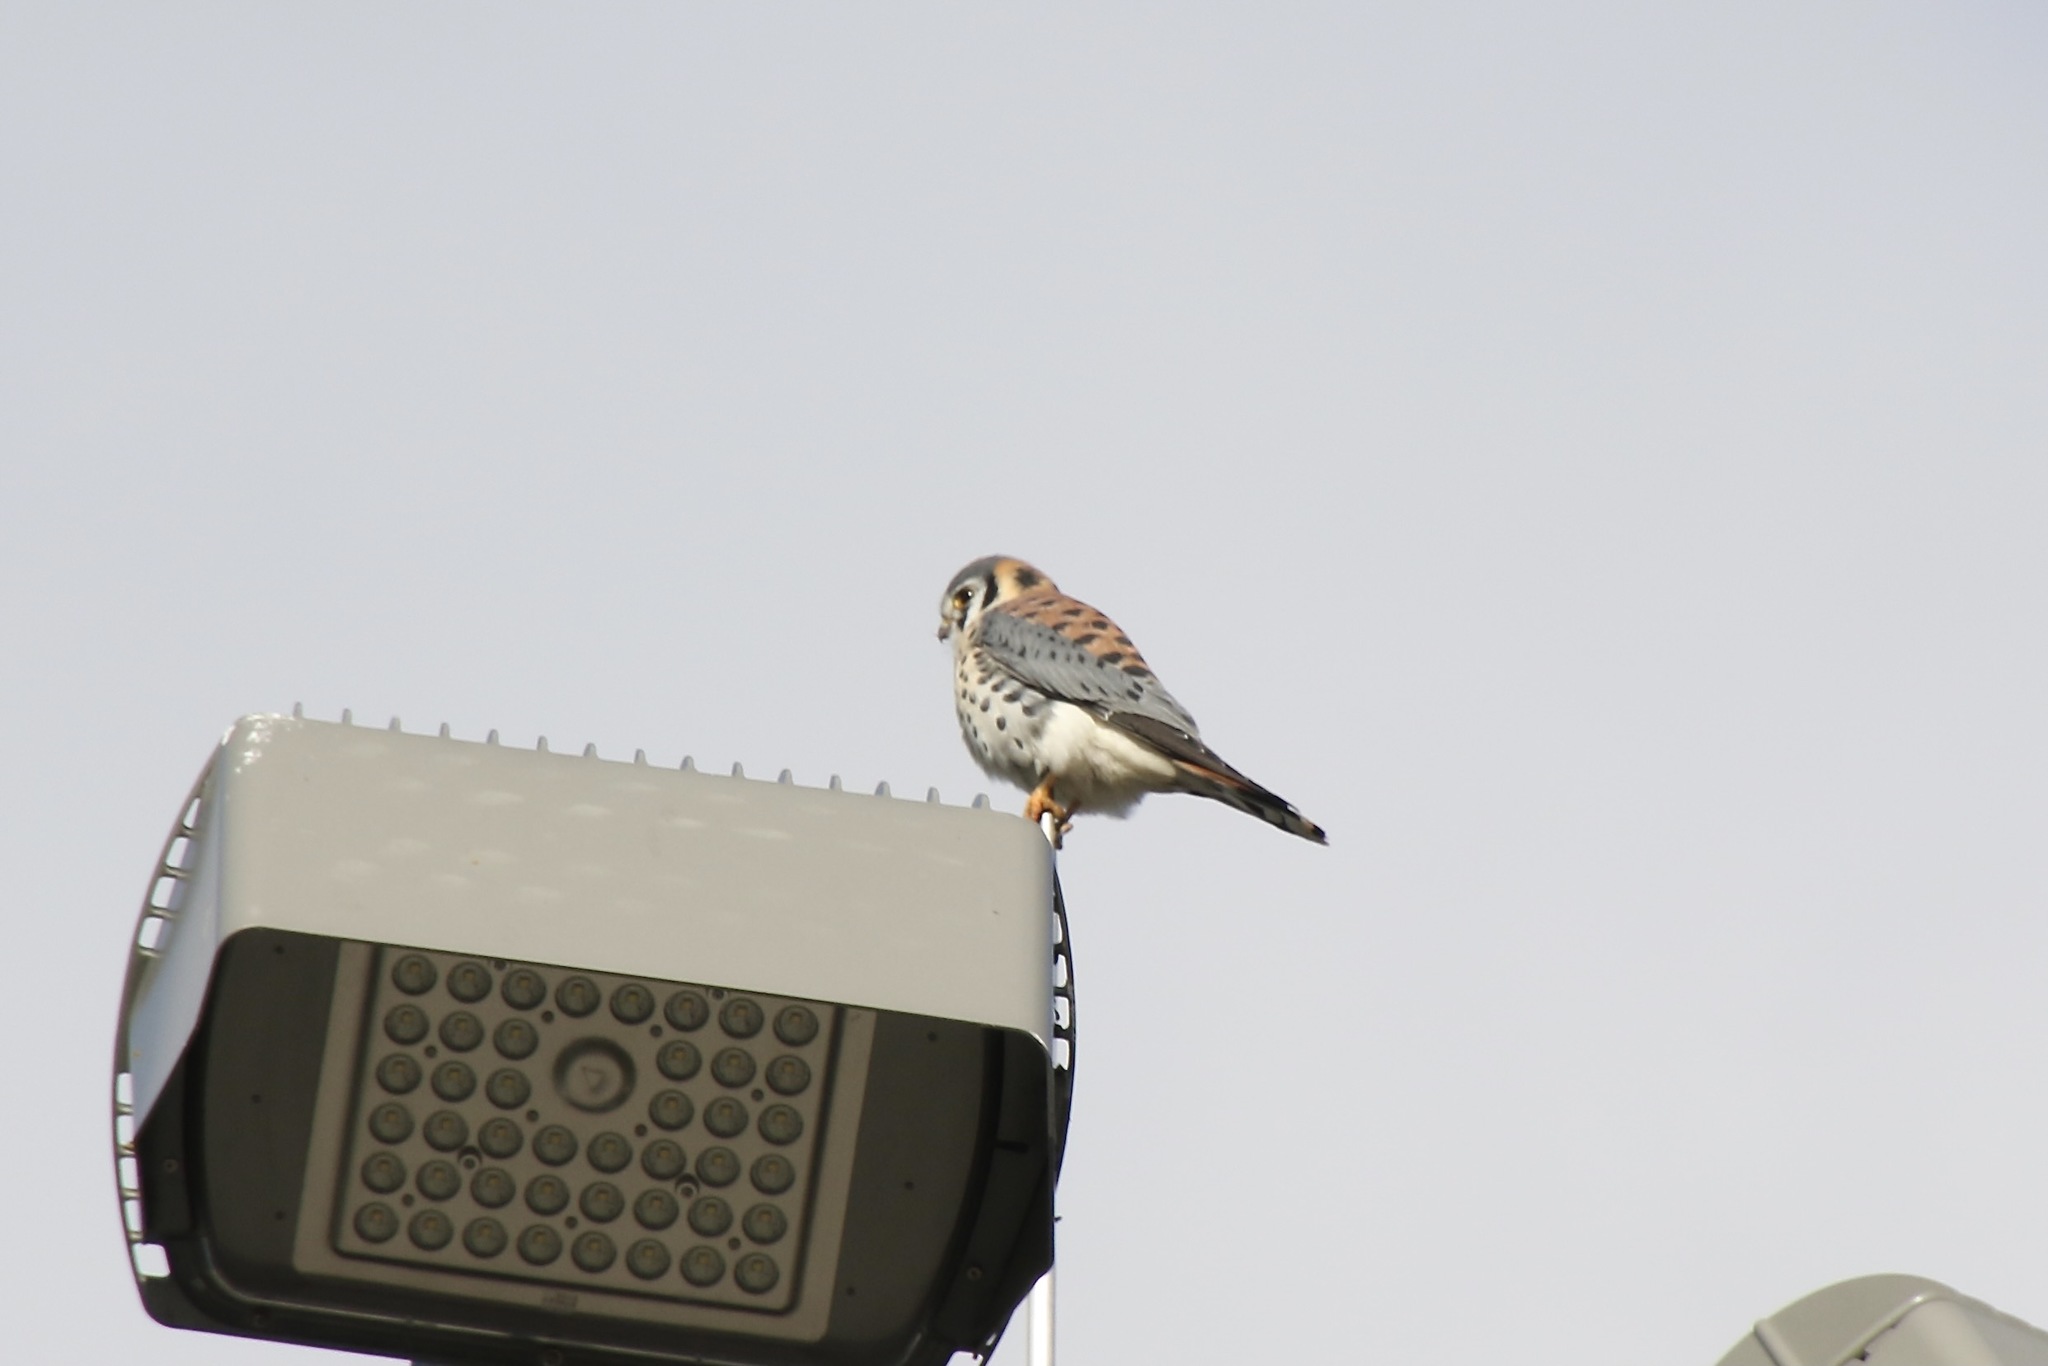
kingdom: Animalia
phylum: Chordata
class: Aves
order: Falconiformes
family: Falconidae
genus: Falco
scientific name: Falco sparverius
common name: American kestrel
